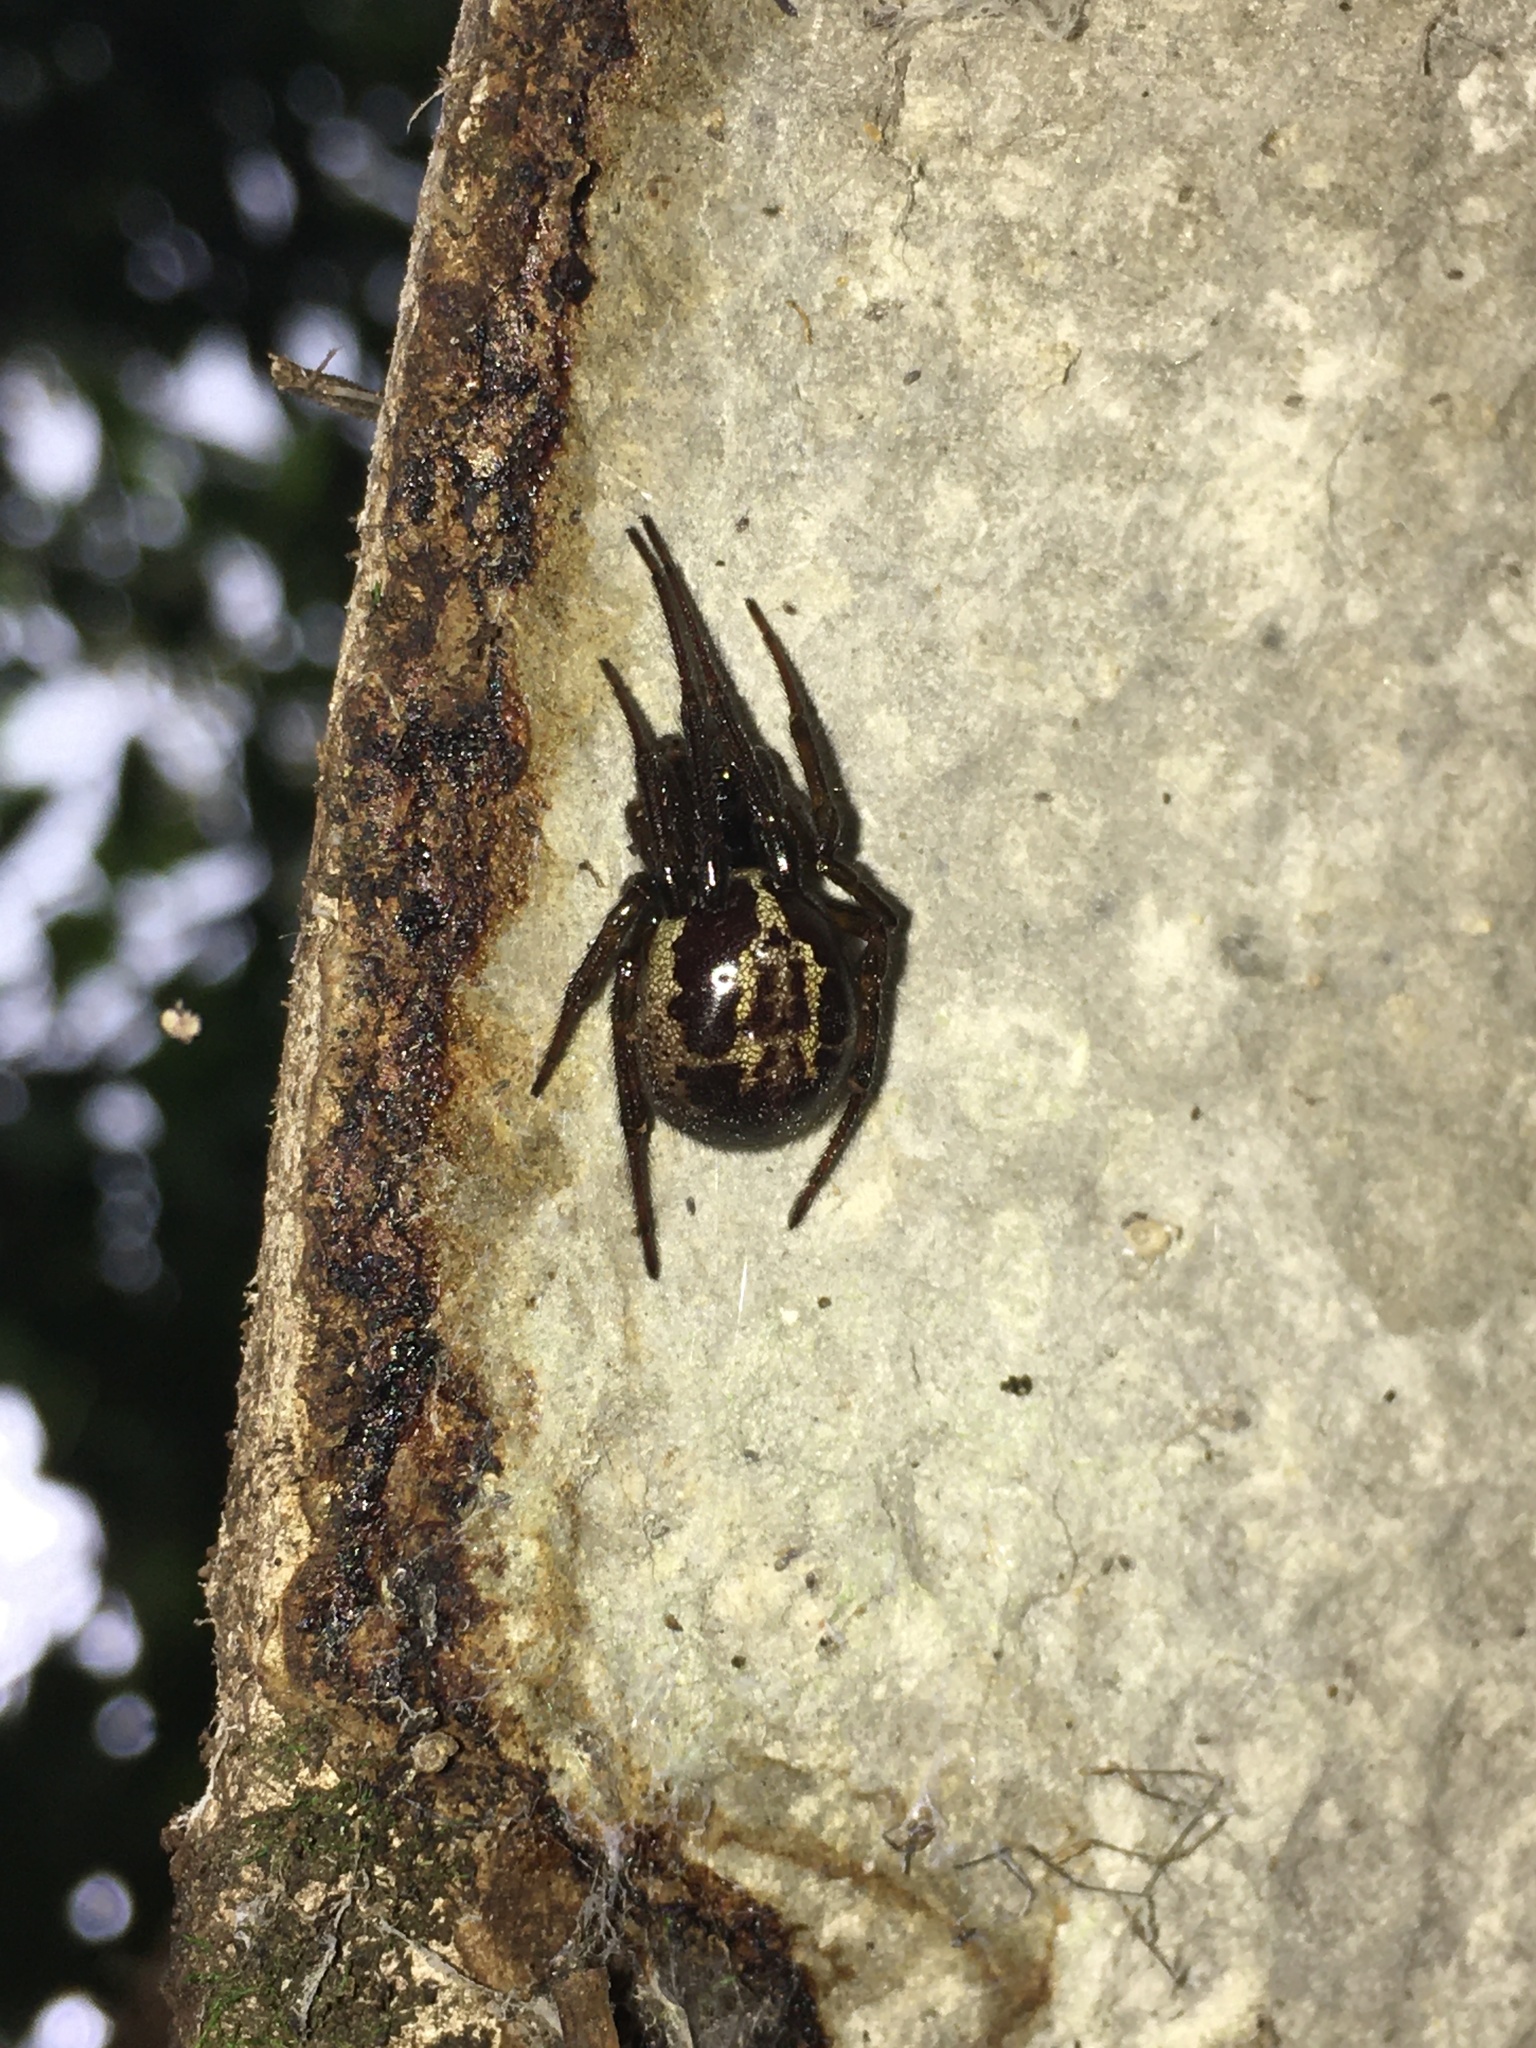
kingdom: Animalia
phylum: Arthropoda
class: Arachnida
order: Araneae
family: Theridiidae
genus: Steatoda
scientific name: Steatoda nobilis
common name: Cobweb weaver
